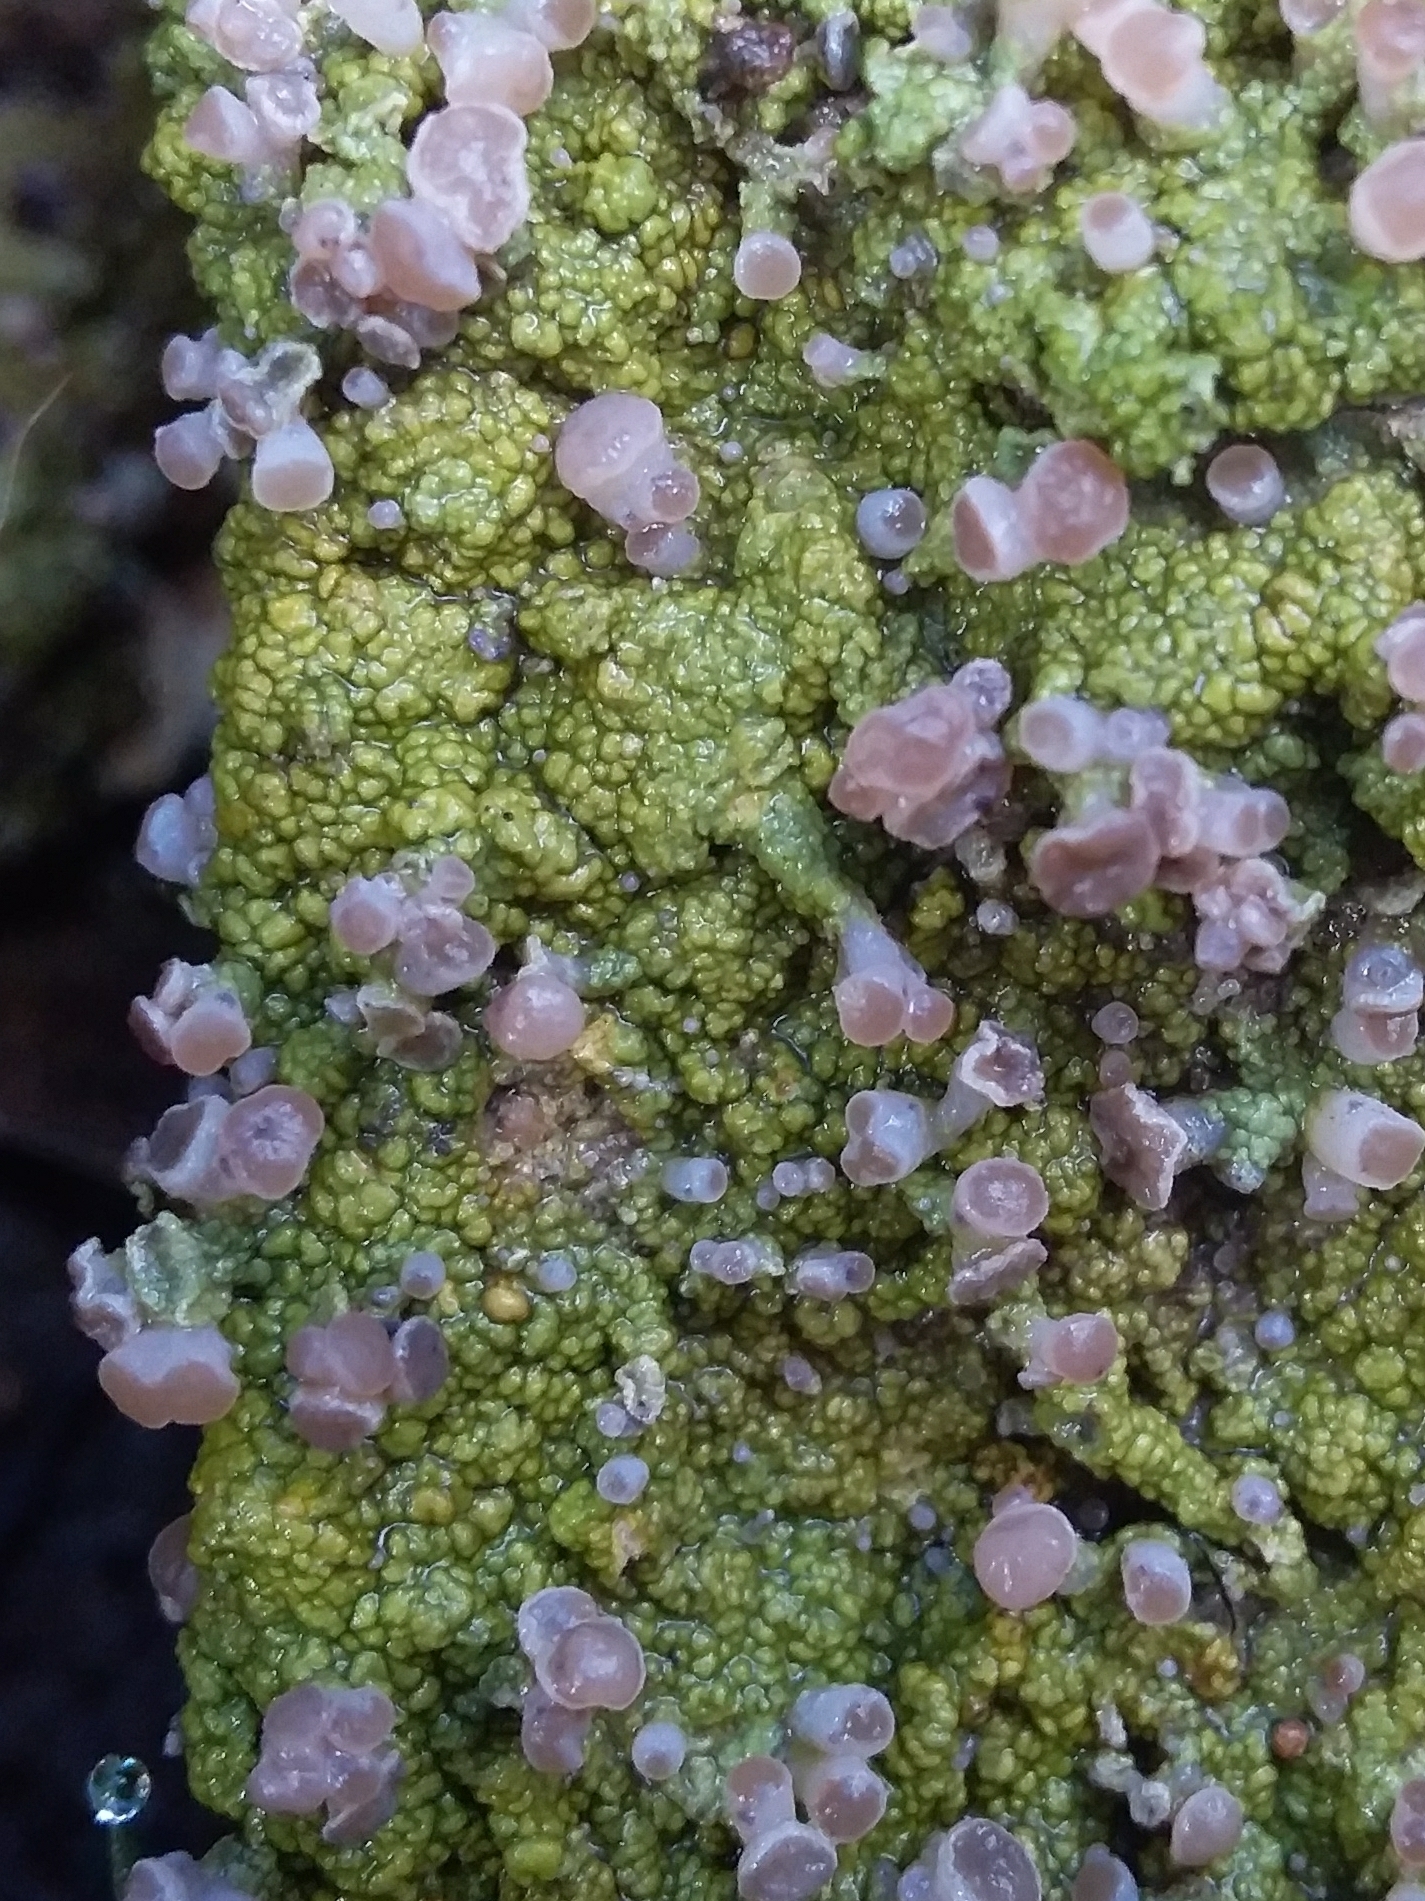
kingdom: Fungi
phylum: Ascomycota
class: Lecanoromycetes
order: Baeomycetales
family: Baeomycetaceae
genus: Baeomyces
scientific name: Baeomyces heteromorphus
